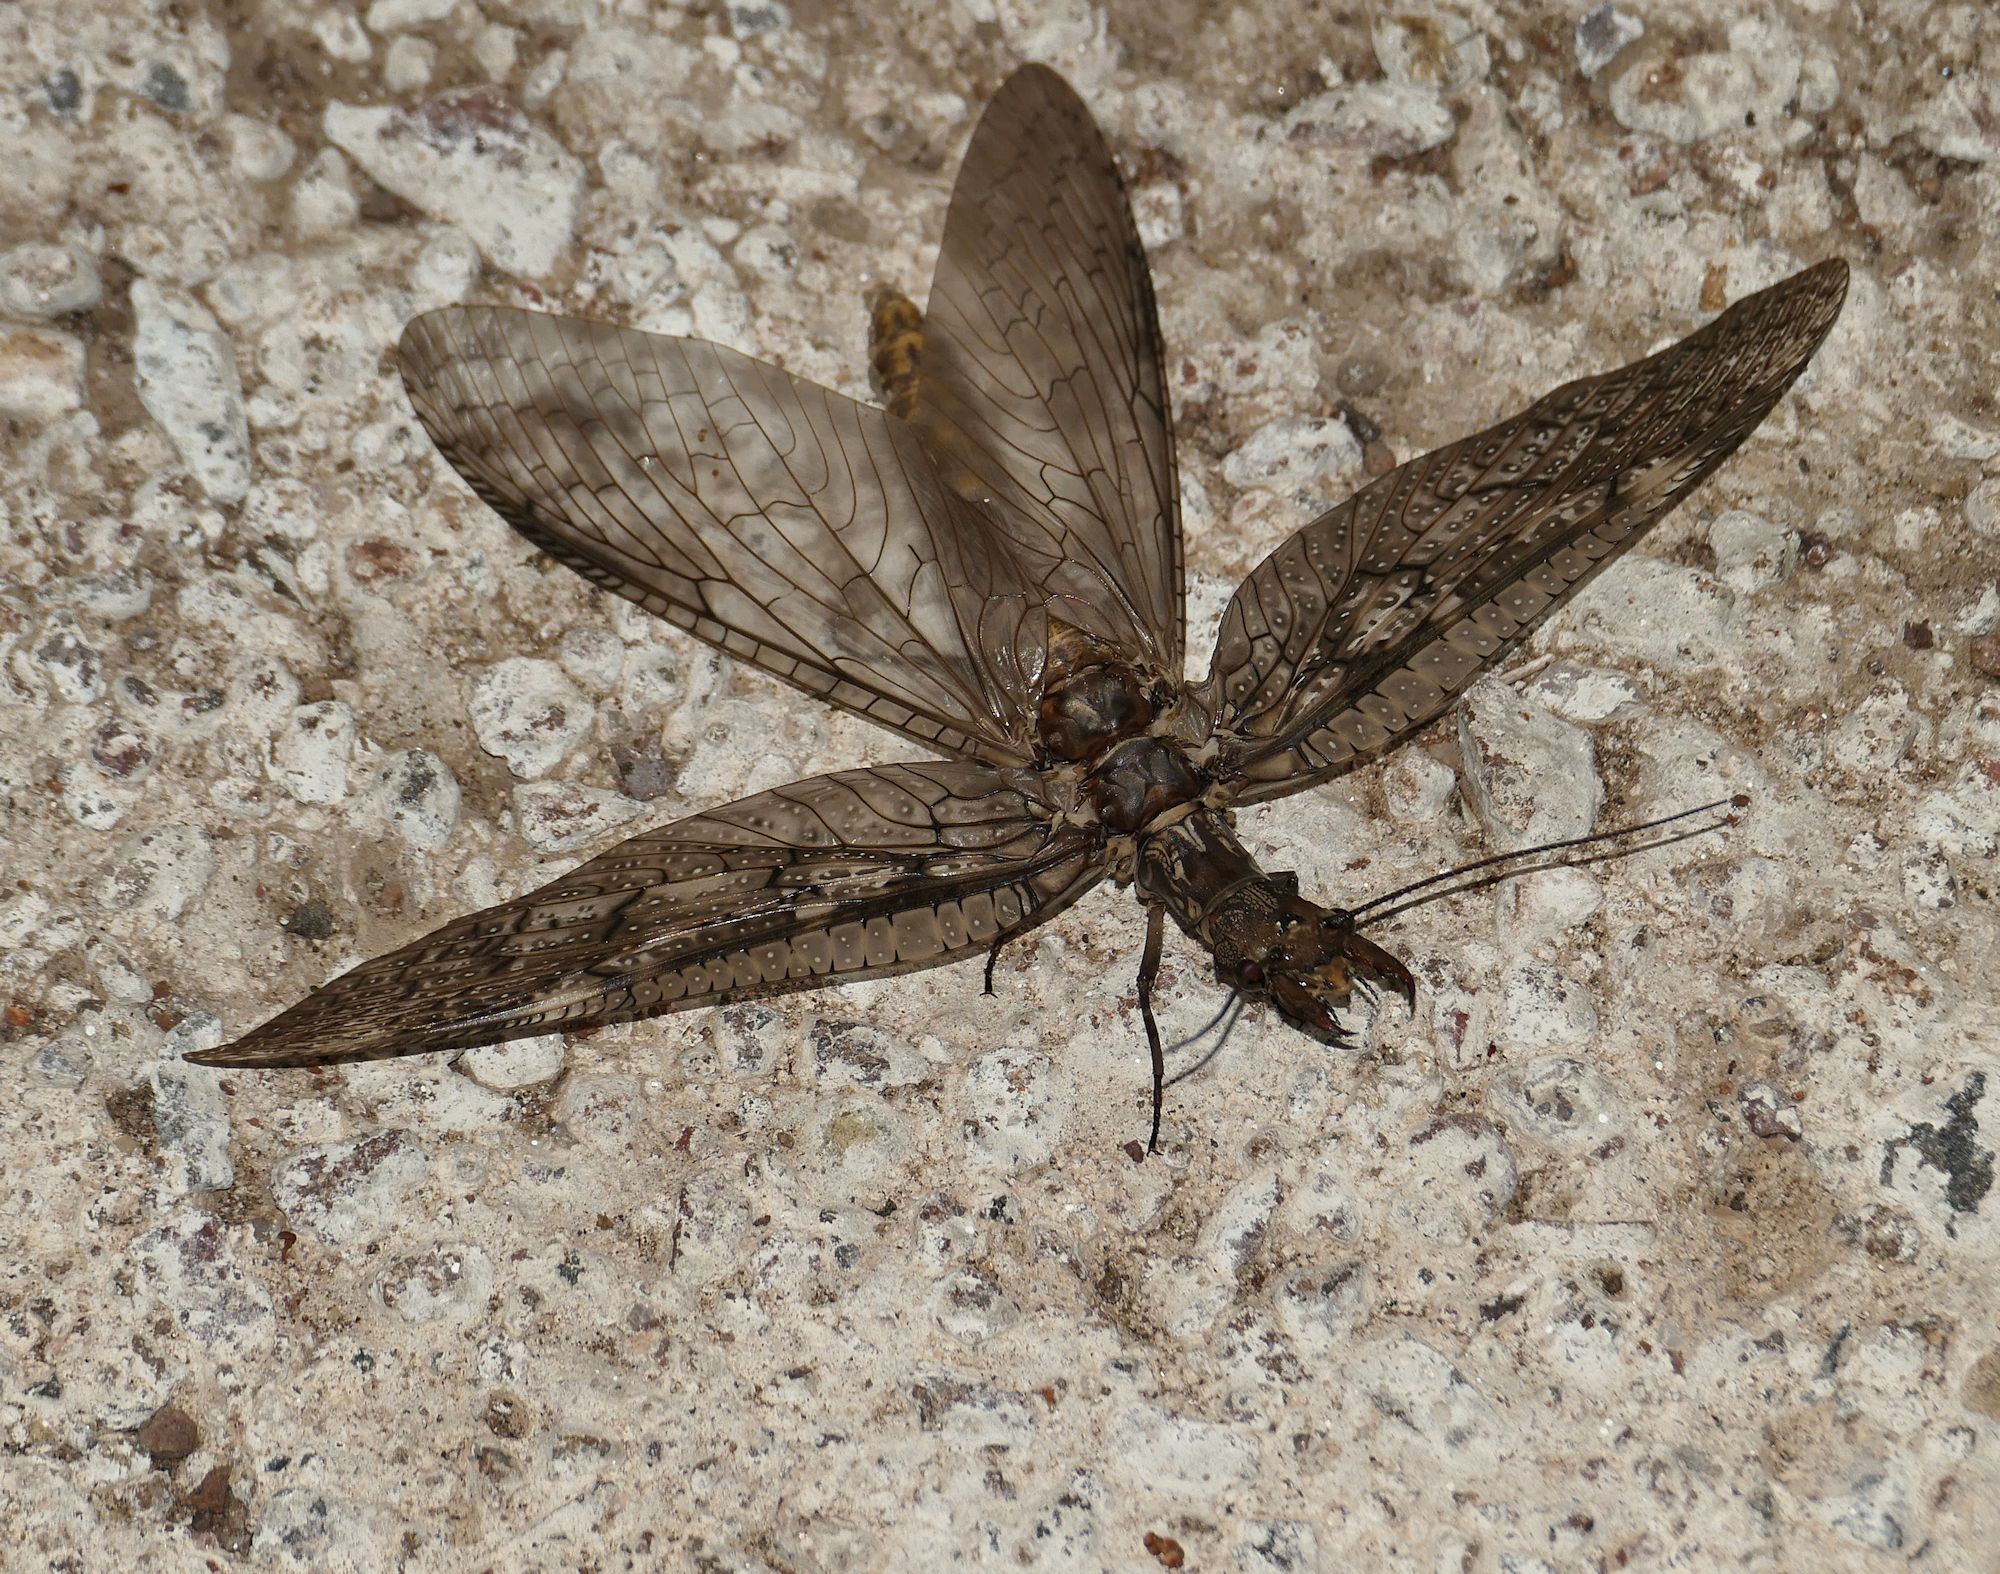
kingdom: Animalia
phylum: Arthropoda
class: Insecta
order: Megaloptera
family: Corydalidae
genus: Corydalus
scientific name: Corydalus texanus
